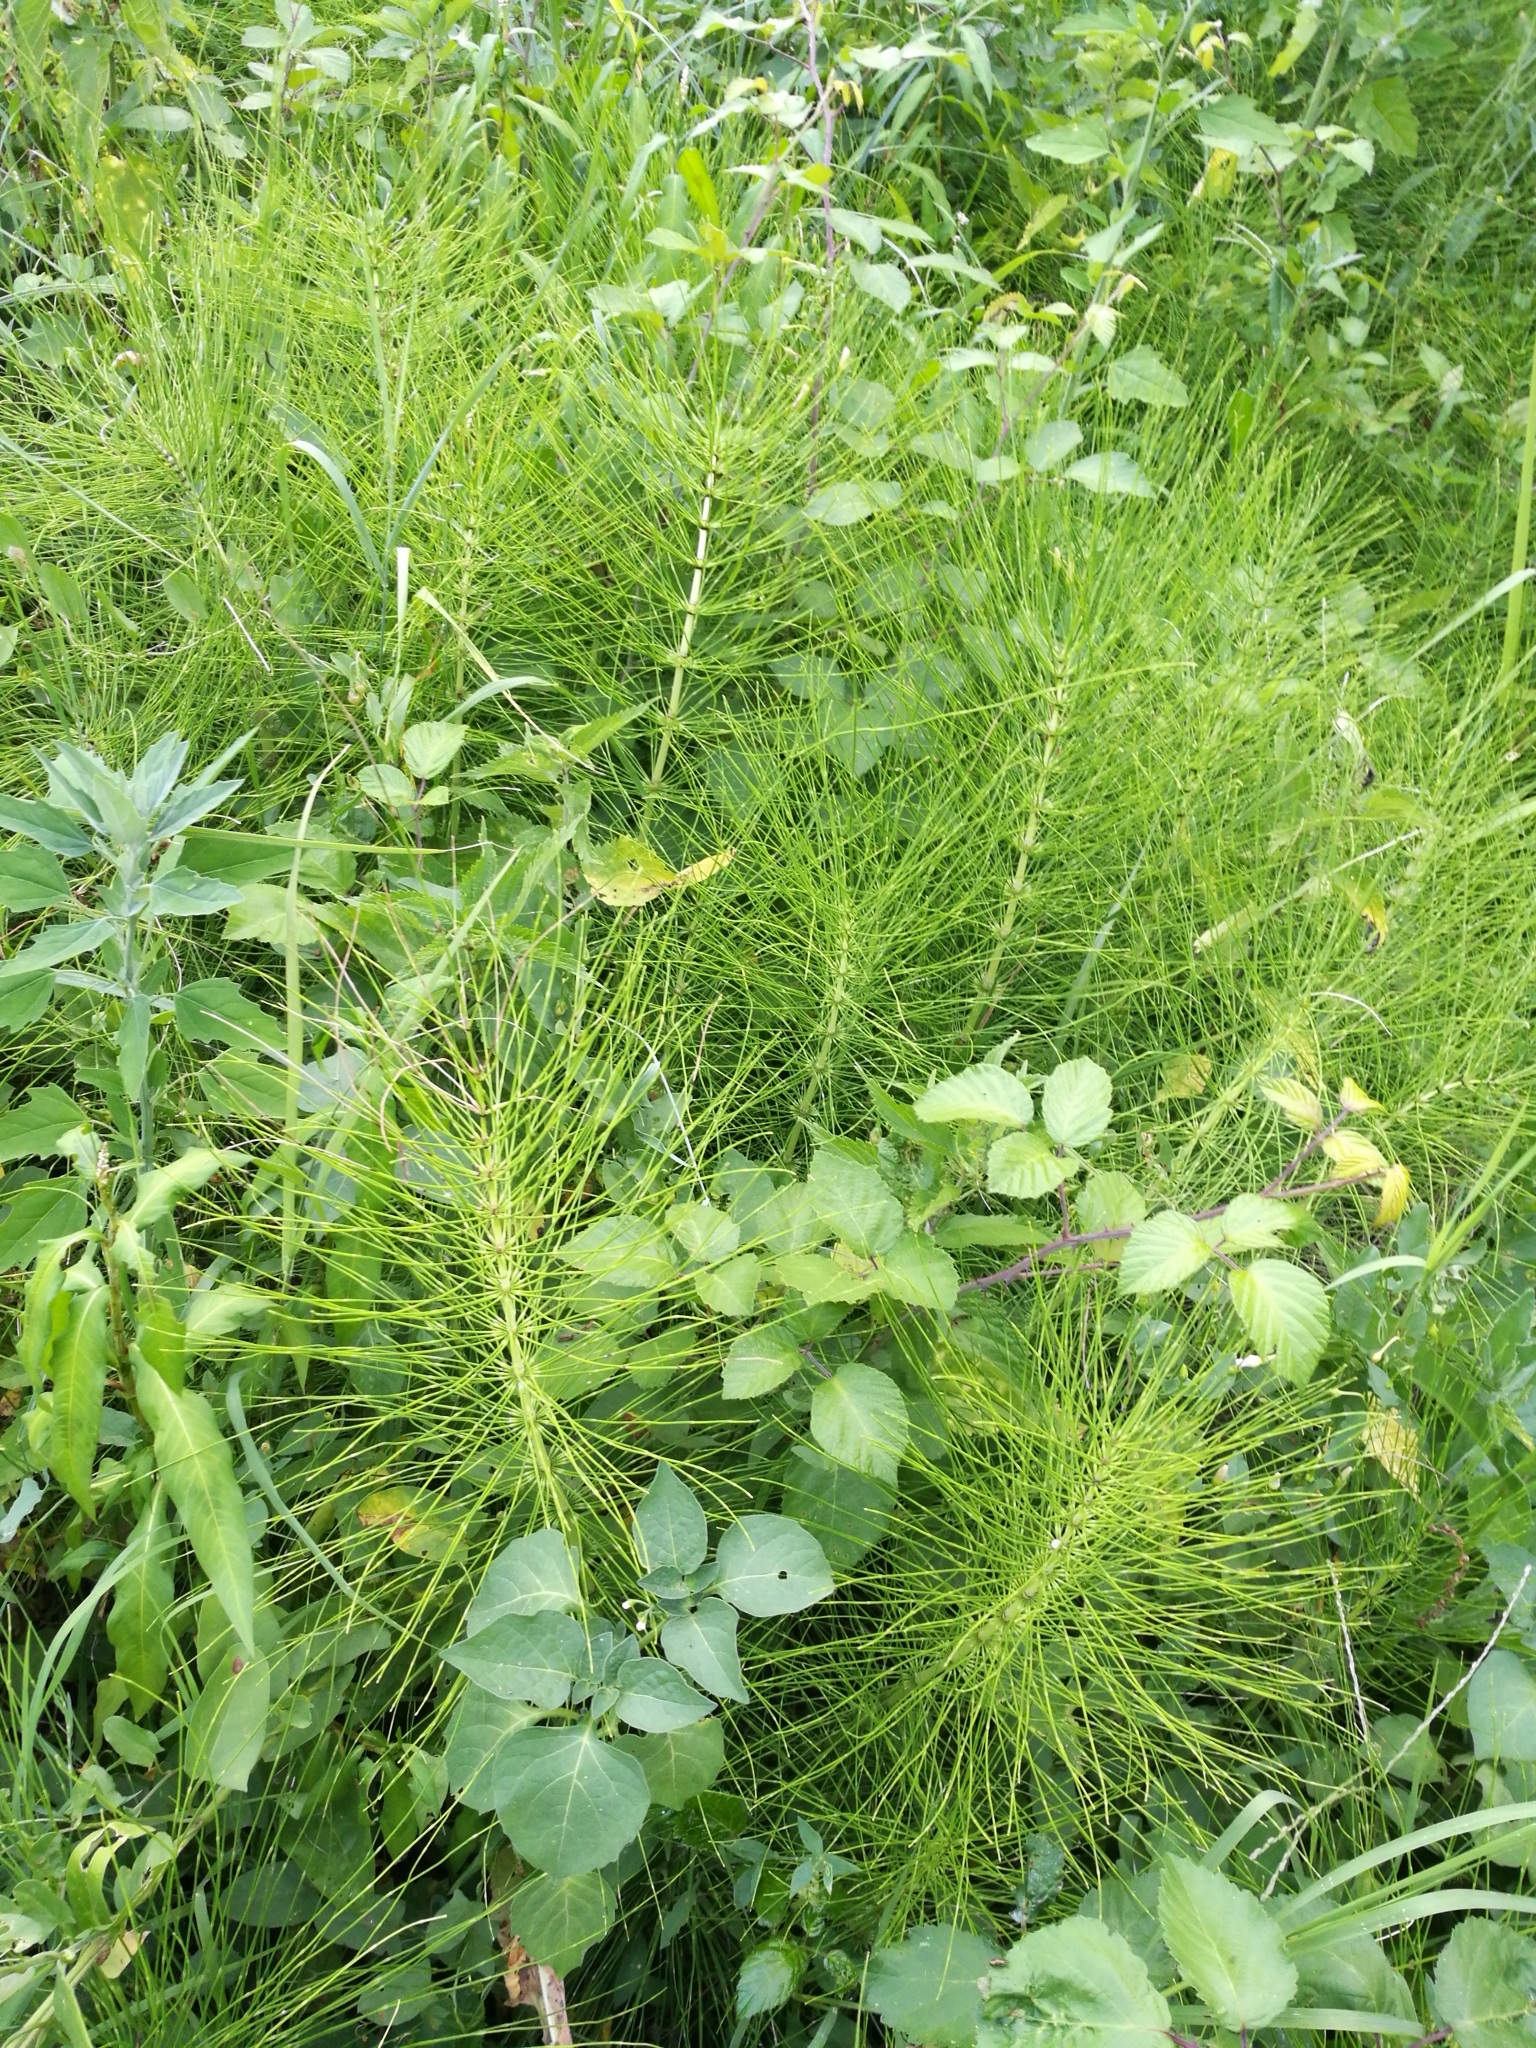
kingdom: Plantae
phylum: Tracheophyta
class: Polypodiopsida
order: Equisetales
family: Equisetaceae
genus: Equisetum
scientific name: Equisetum telmateia
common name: Great horsetail
